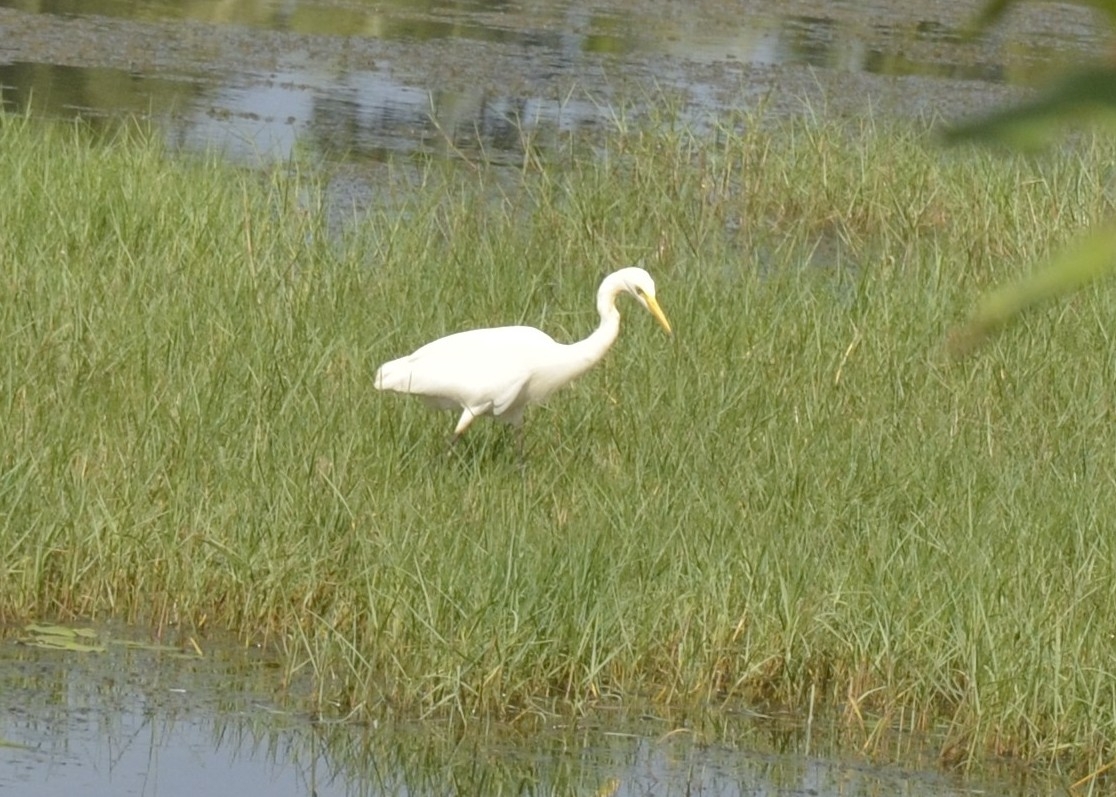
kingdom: Animalia
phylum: Chordata
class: Aves
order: Pelecaniformes
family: Ardeidae
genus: Egretta
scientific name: Egretta intermedia
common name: Intermediate egret
